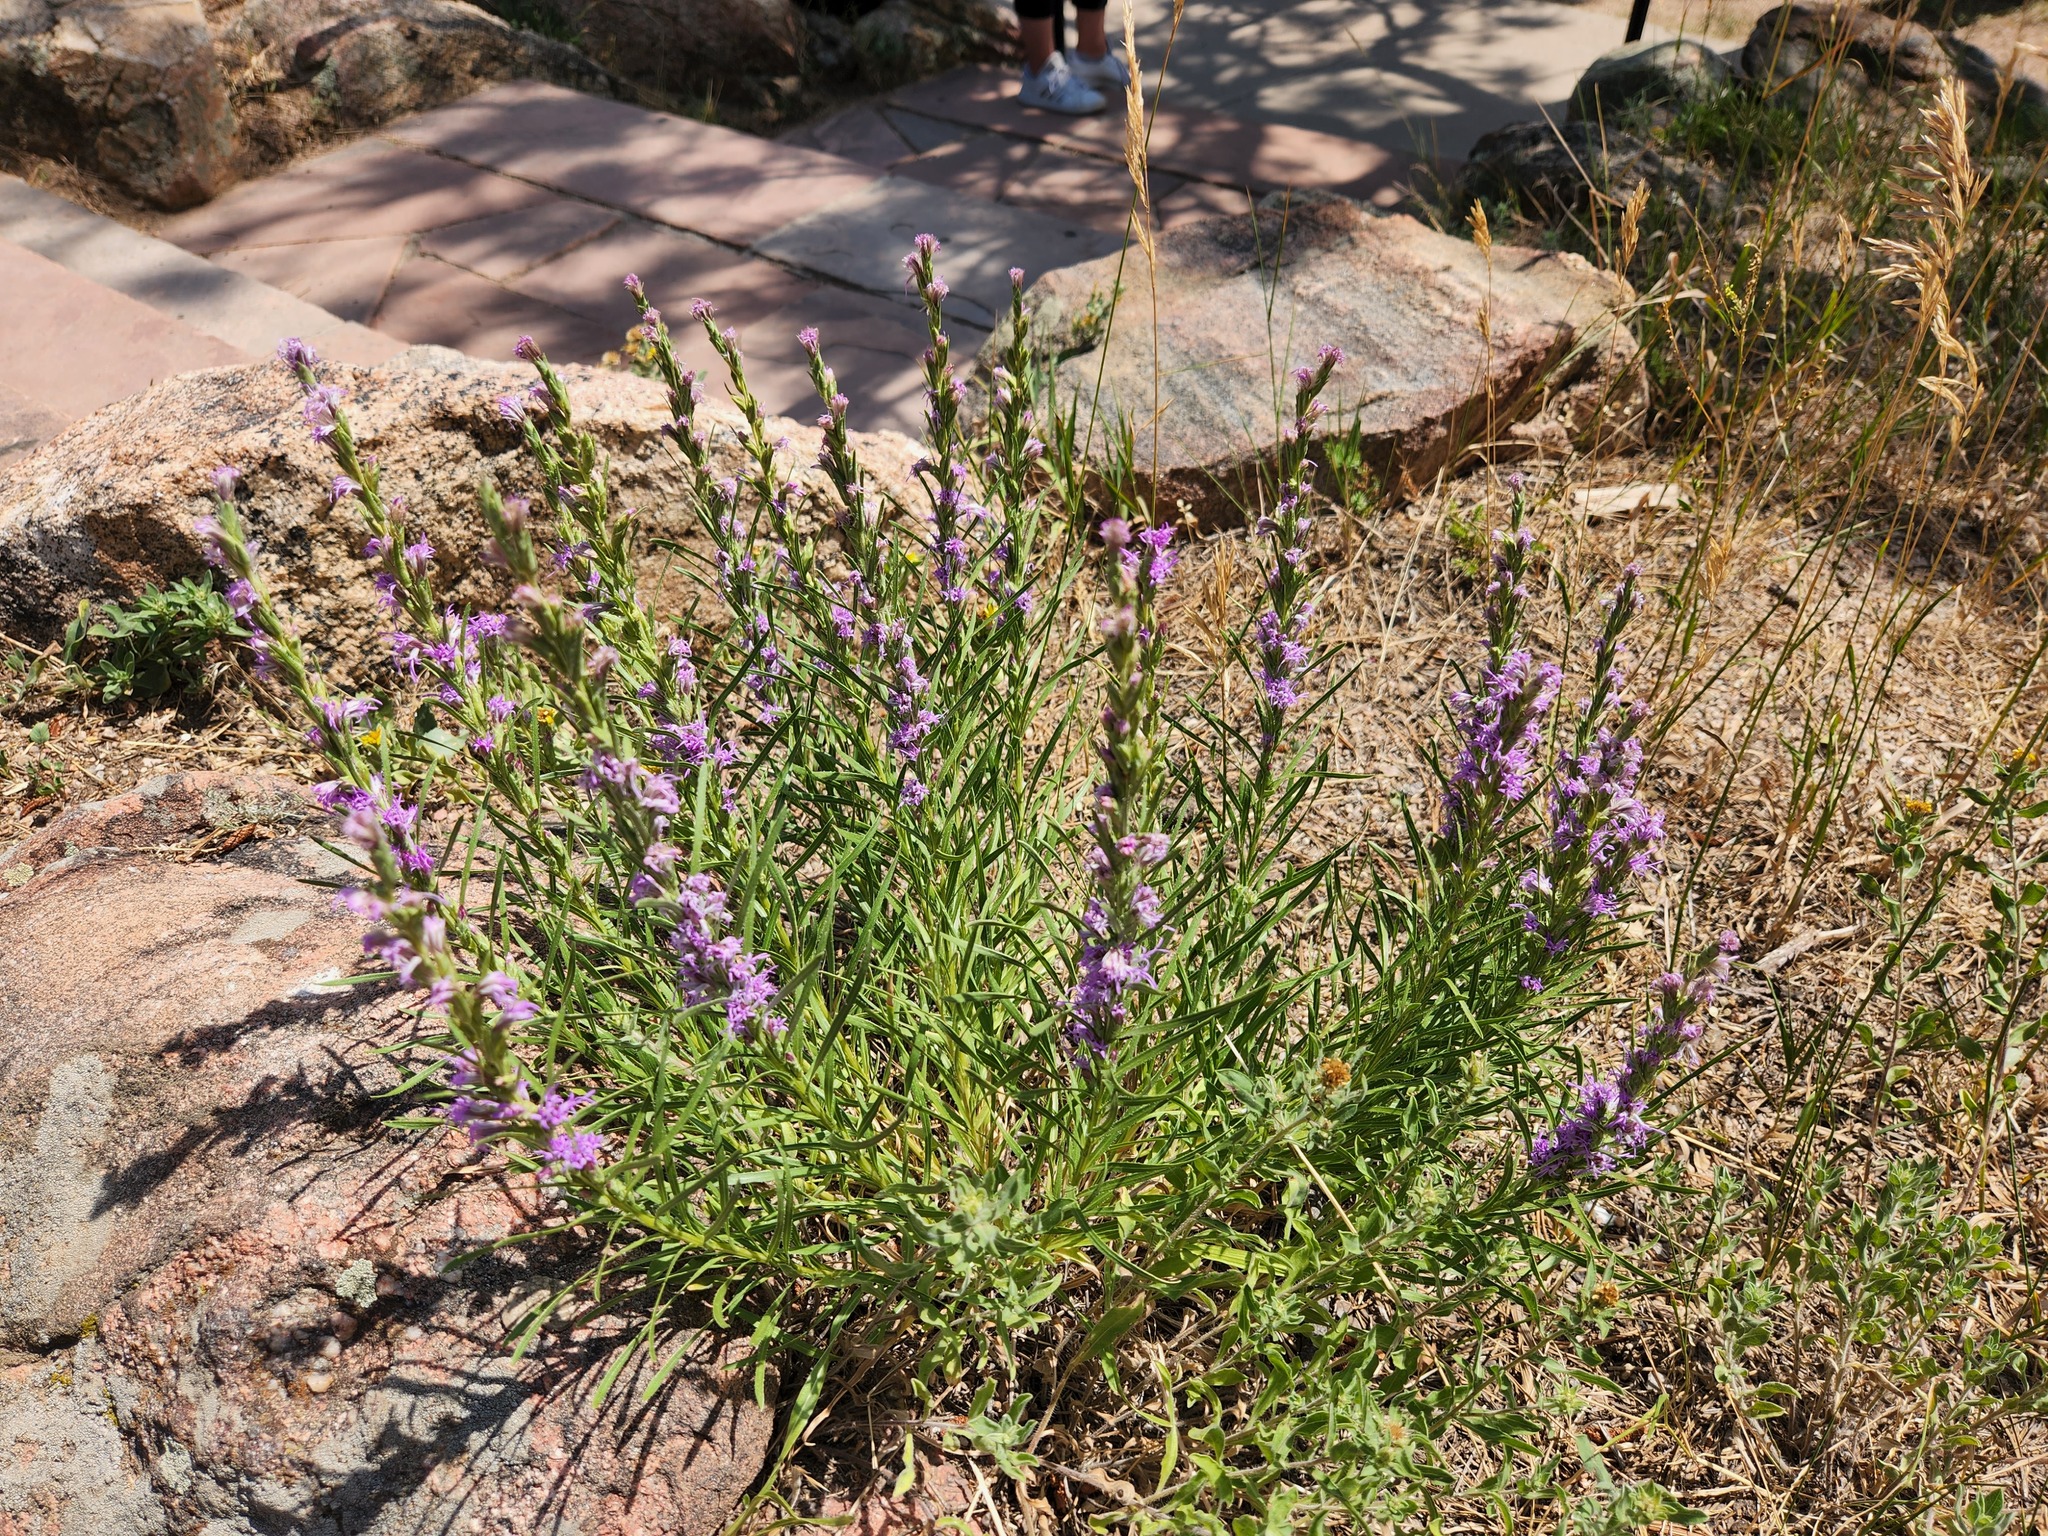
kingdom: Plantae
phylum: Tracheophyta
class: Magnoliopsida
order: Asterales
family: Asteraceae
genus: Liatris
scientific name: Liatris punctata
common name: Dotted gayfeather
